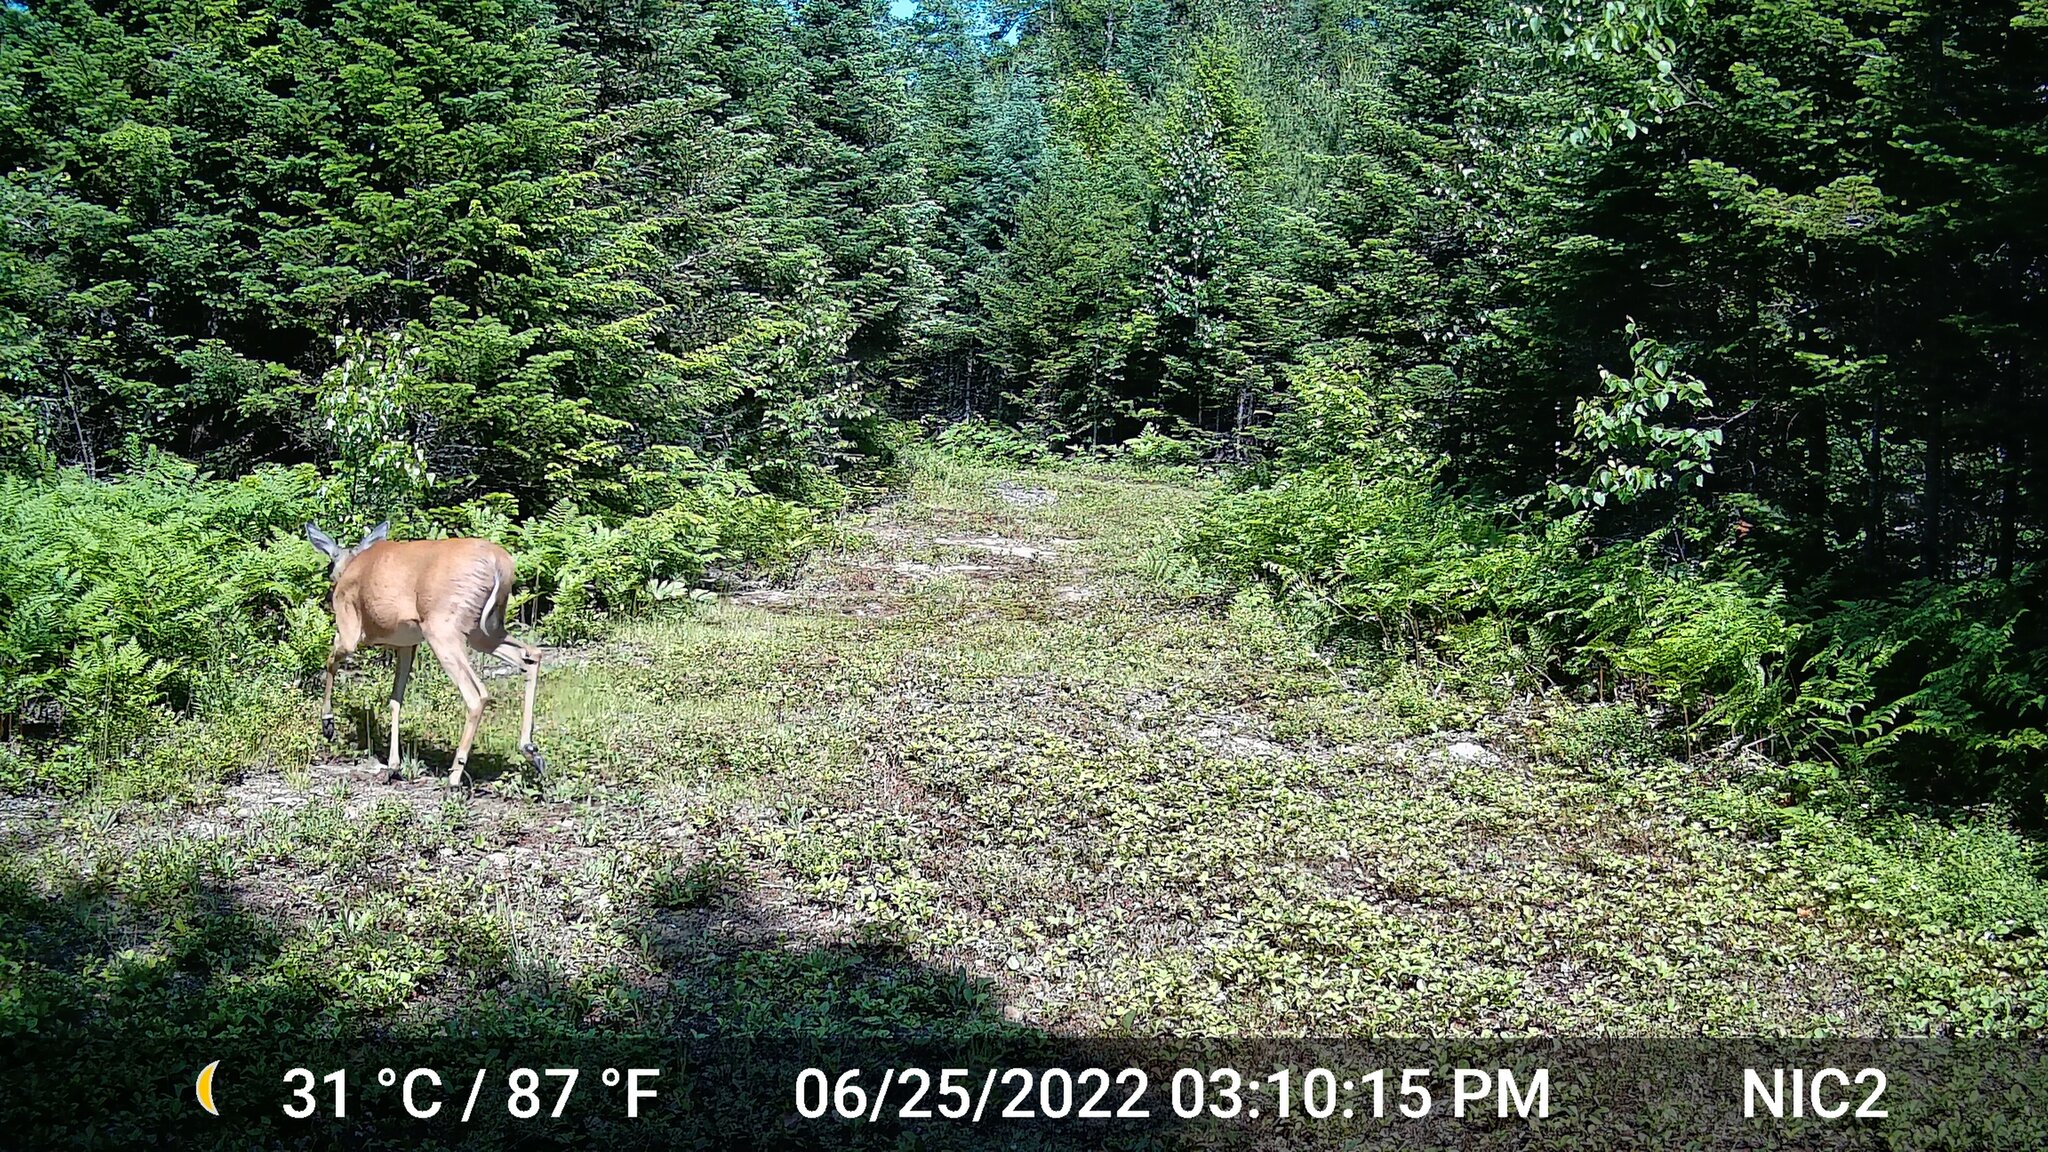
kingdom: Animalia
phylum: Chordata
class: Mammalia
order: Artiodactyla
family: Cervidae
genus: Odocoileus
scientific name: Odocoileus virginianus
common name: White-tailed deer
